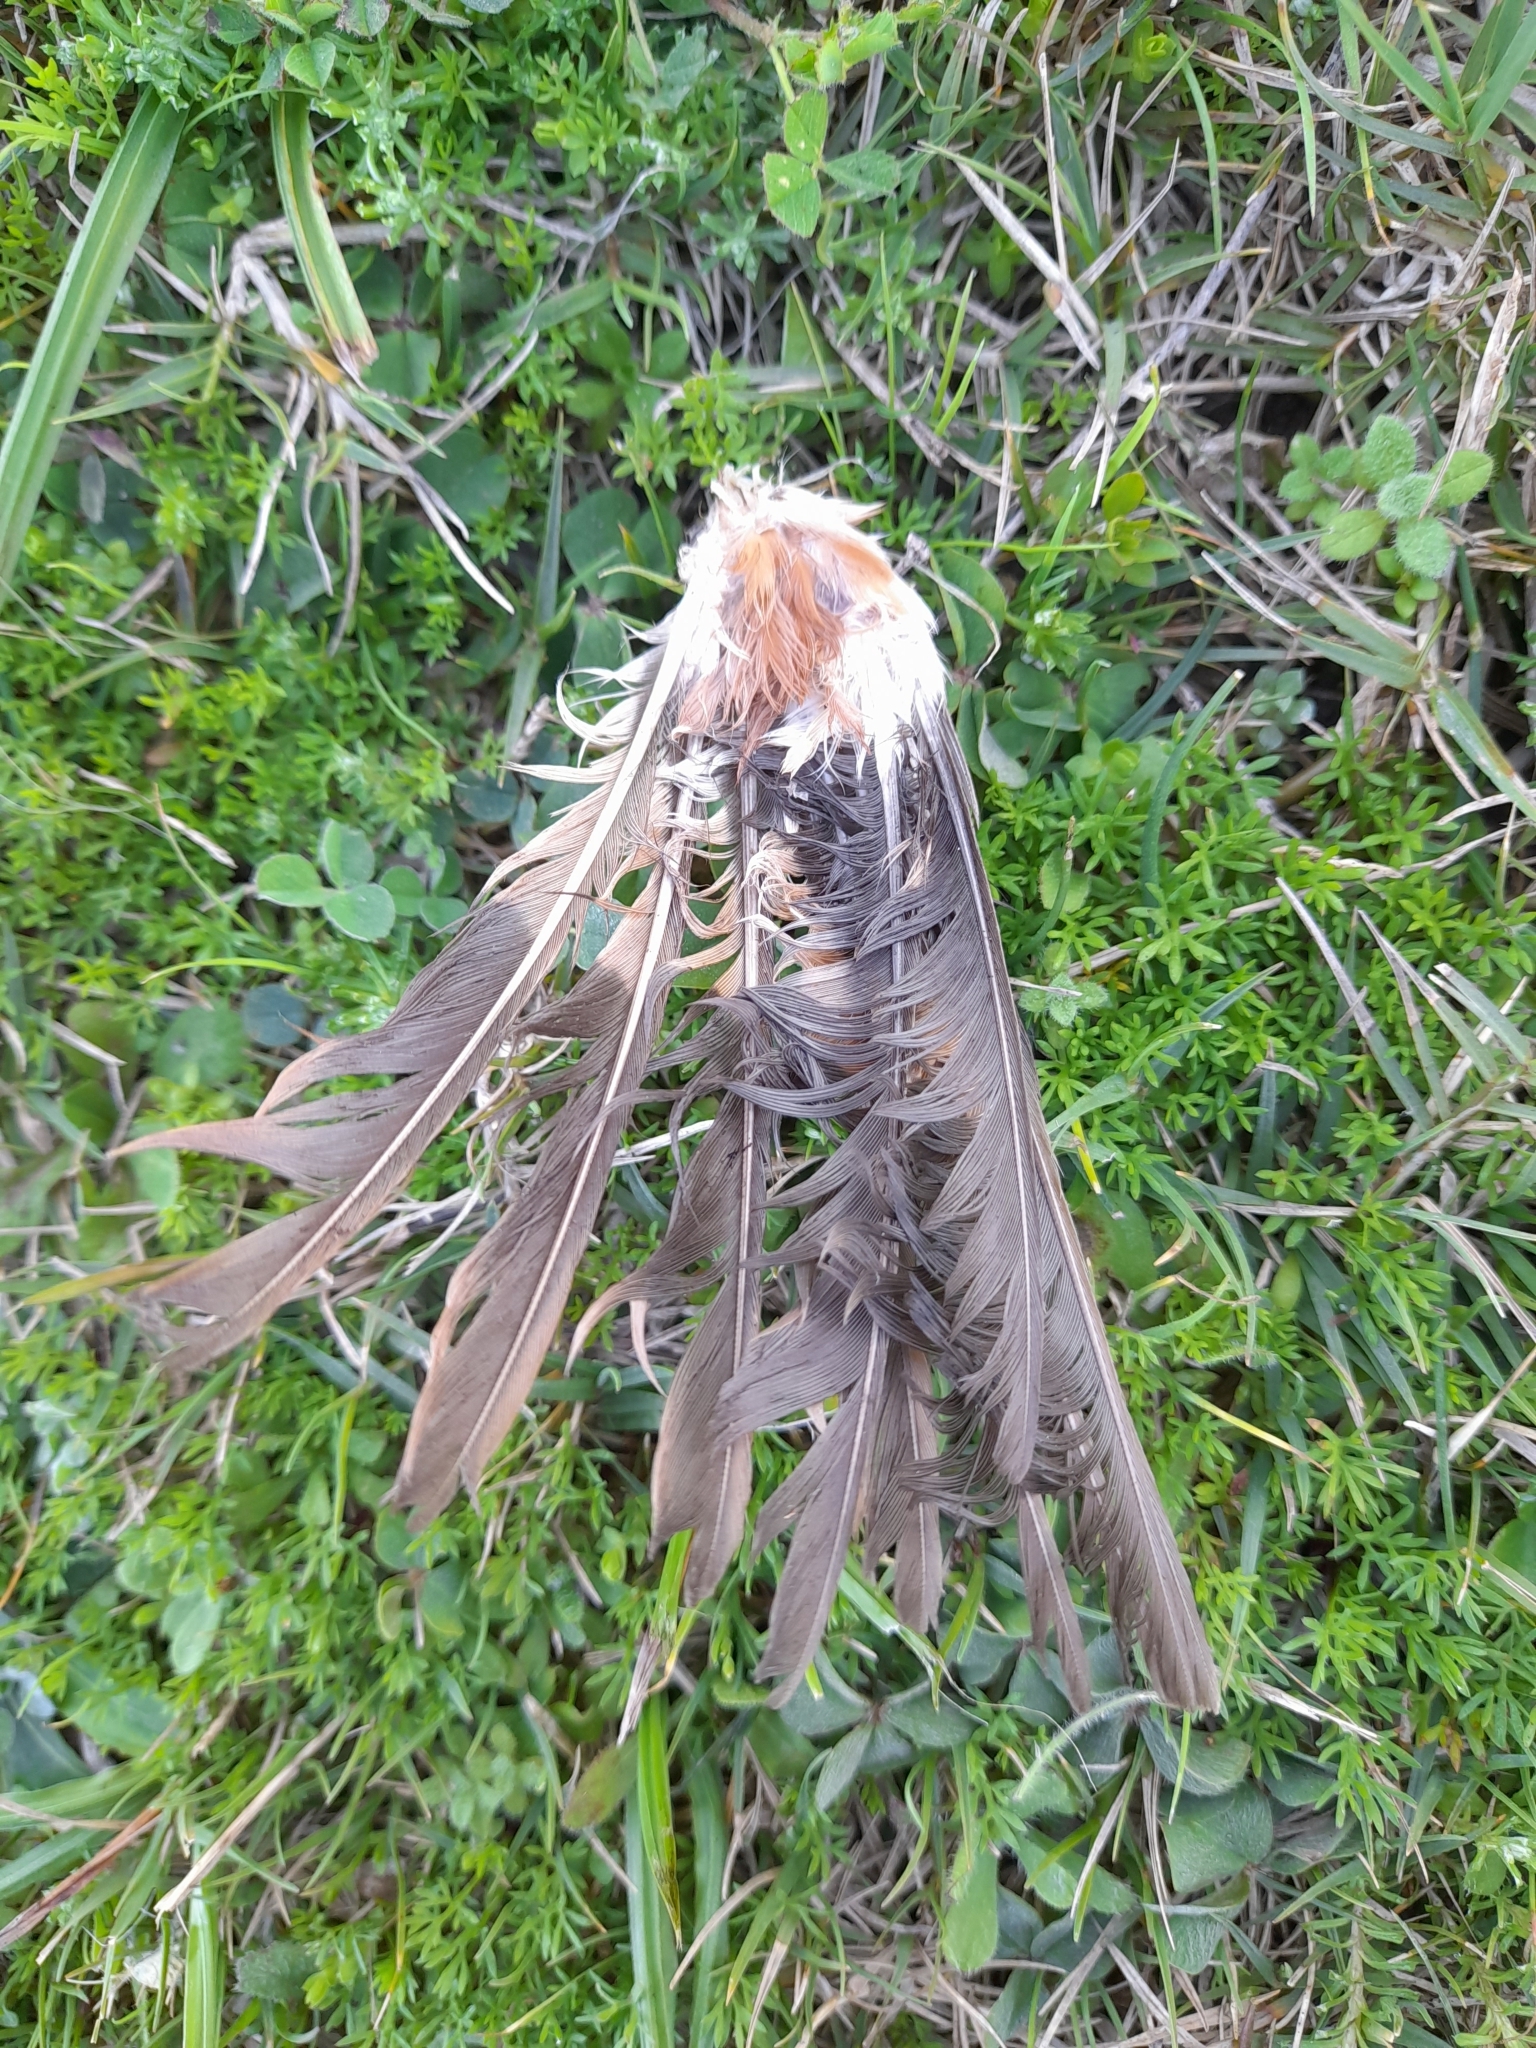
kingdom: Animalia
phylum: Chordata
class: Aves
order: Passeriformes
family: Furnariidae
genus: Furnarius
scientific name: Furnarius rufus
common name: Rufous hornero
